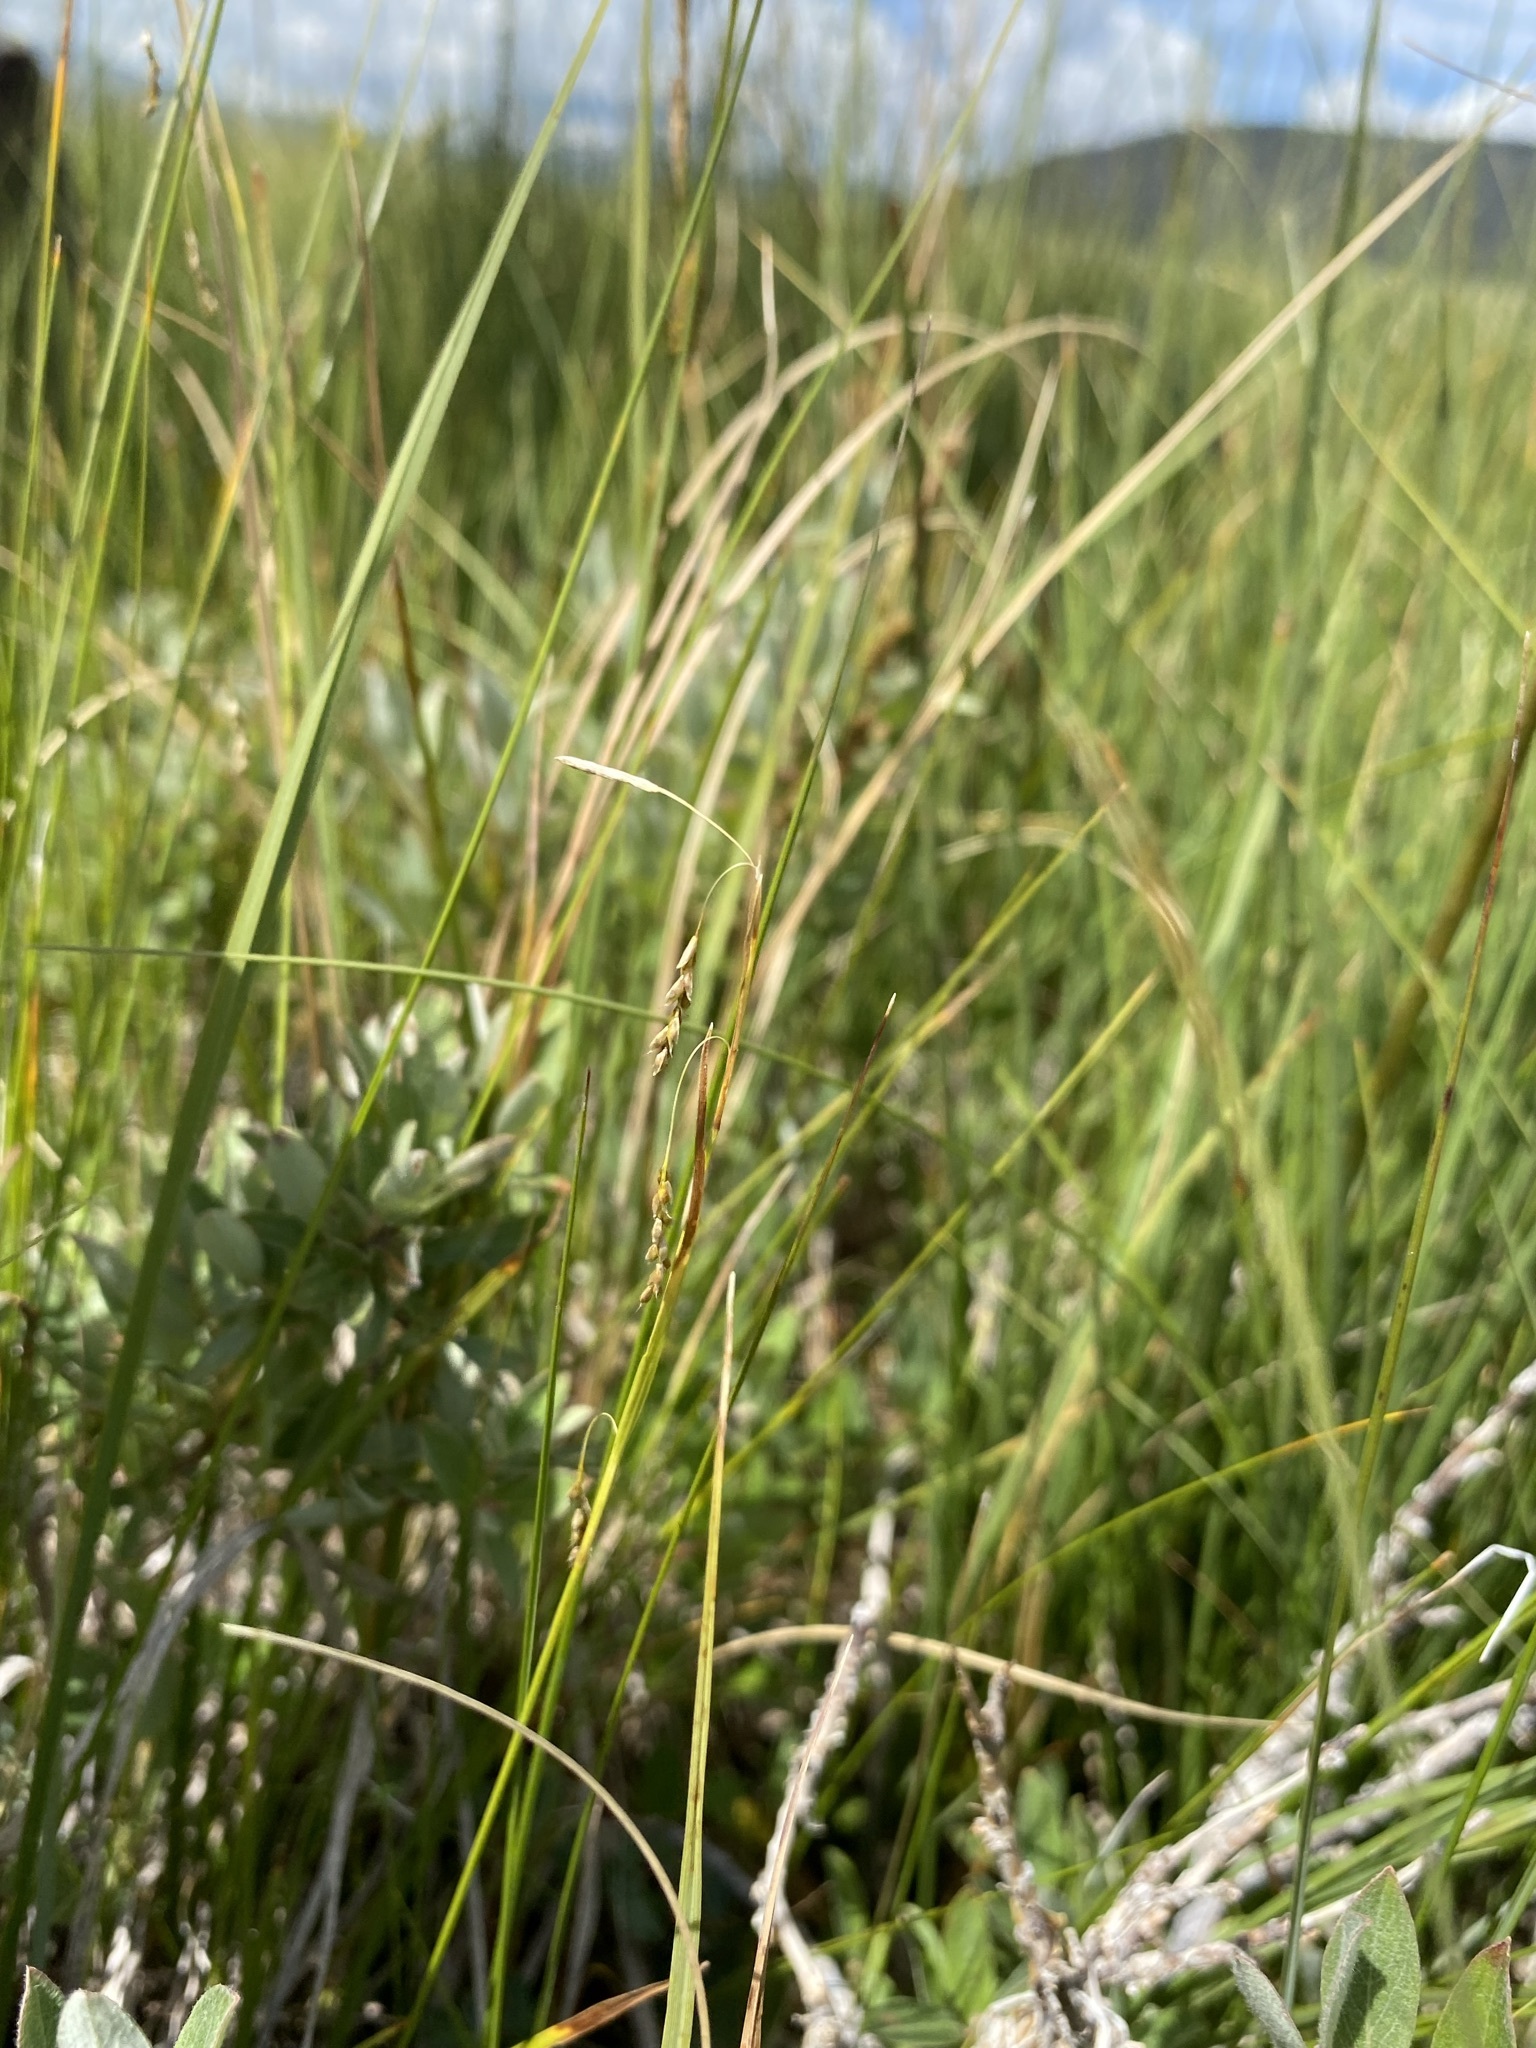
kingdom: Plantae
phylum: Tracheophyta
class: Liliopsida
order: Poales
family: Cyperaceae
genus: Carex
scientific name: Carex capillaris
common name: Hair sedge
